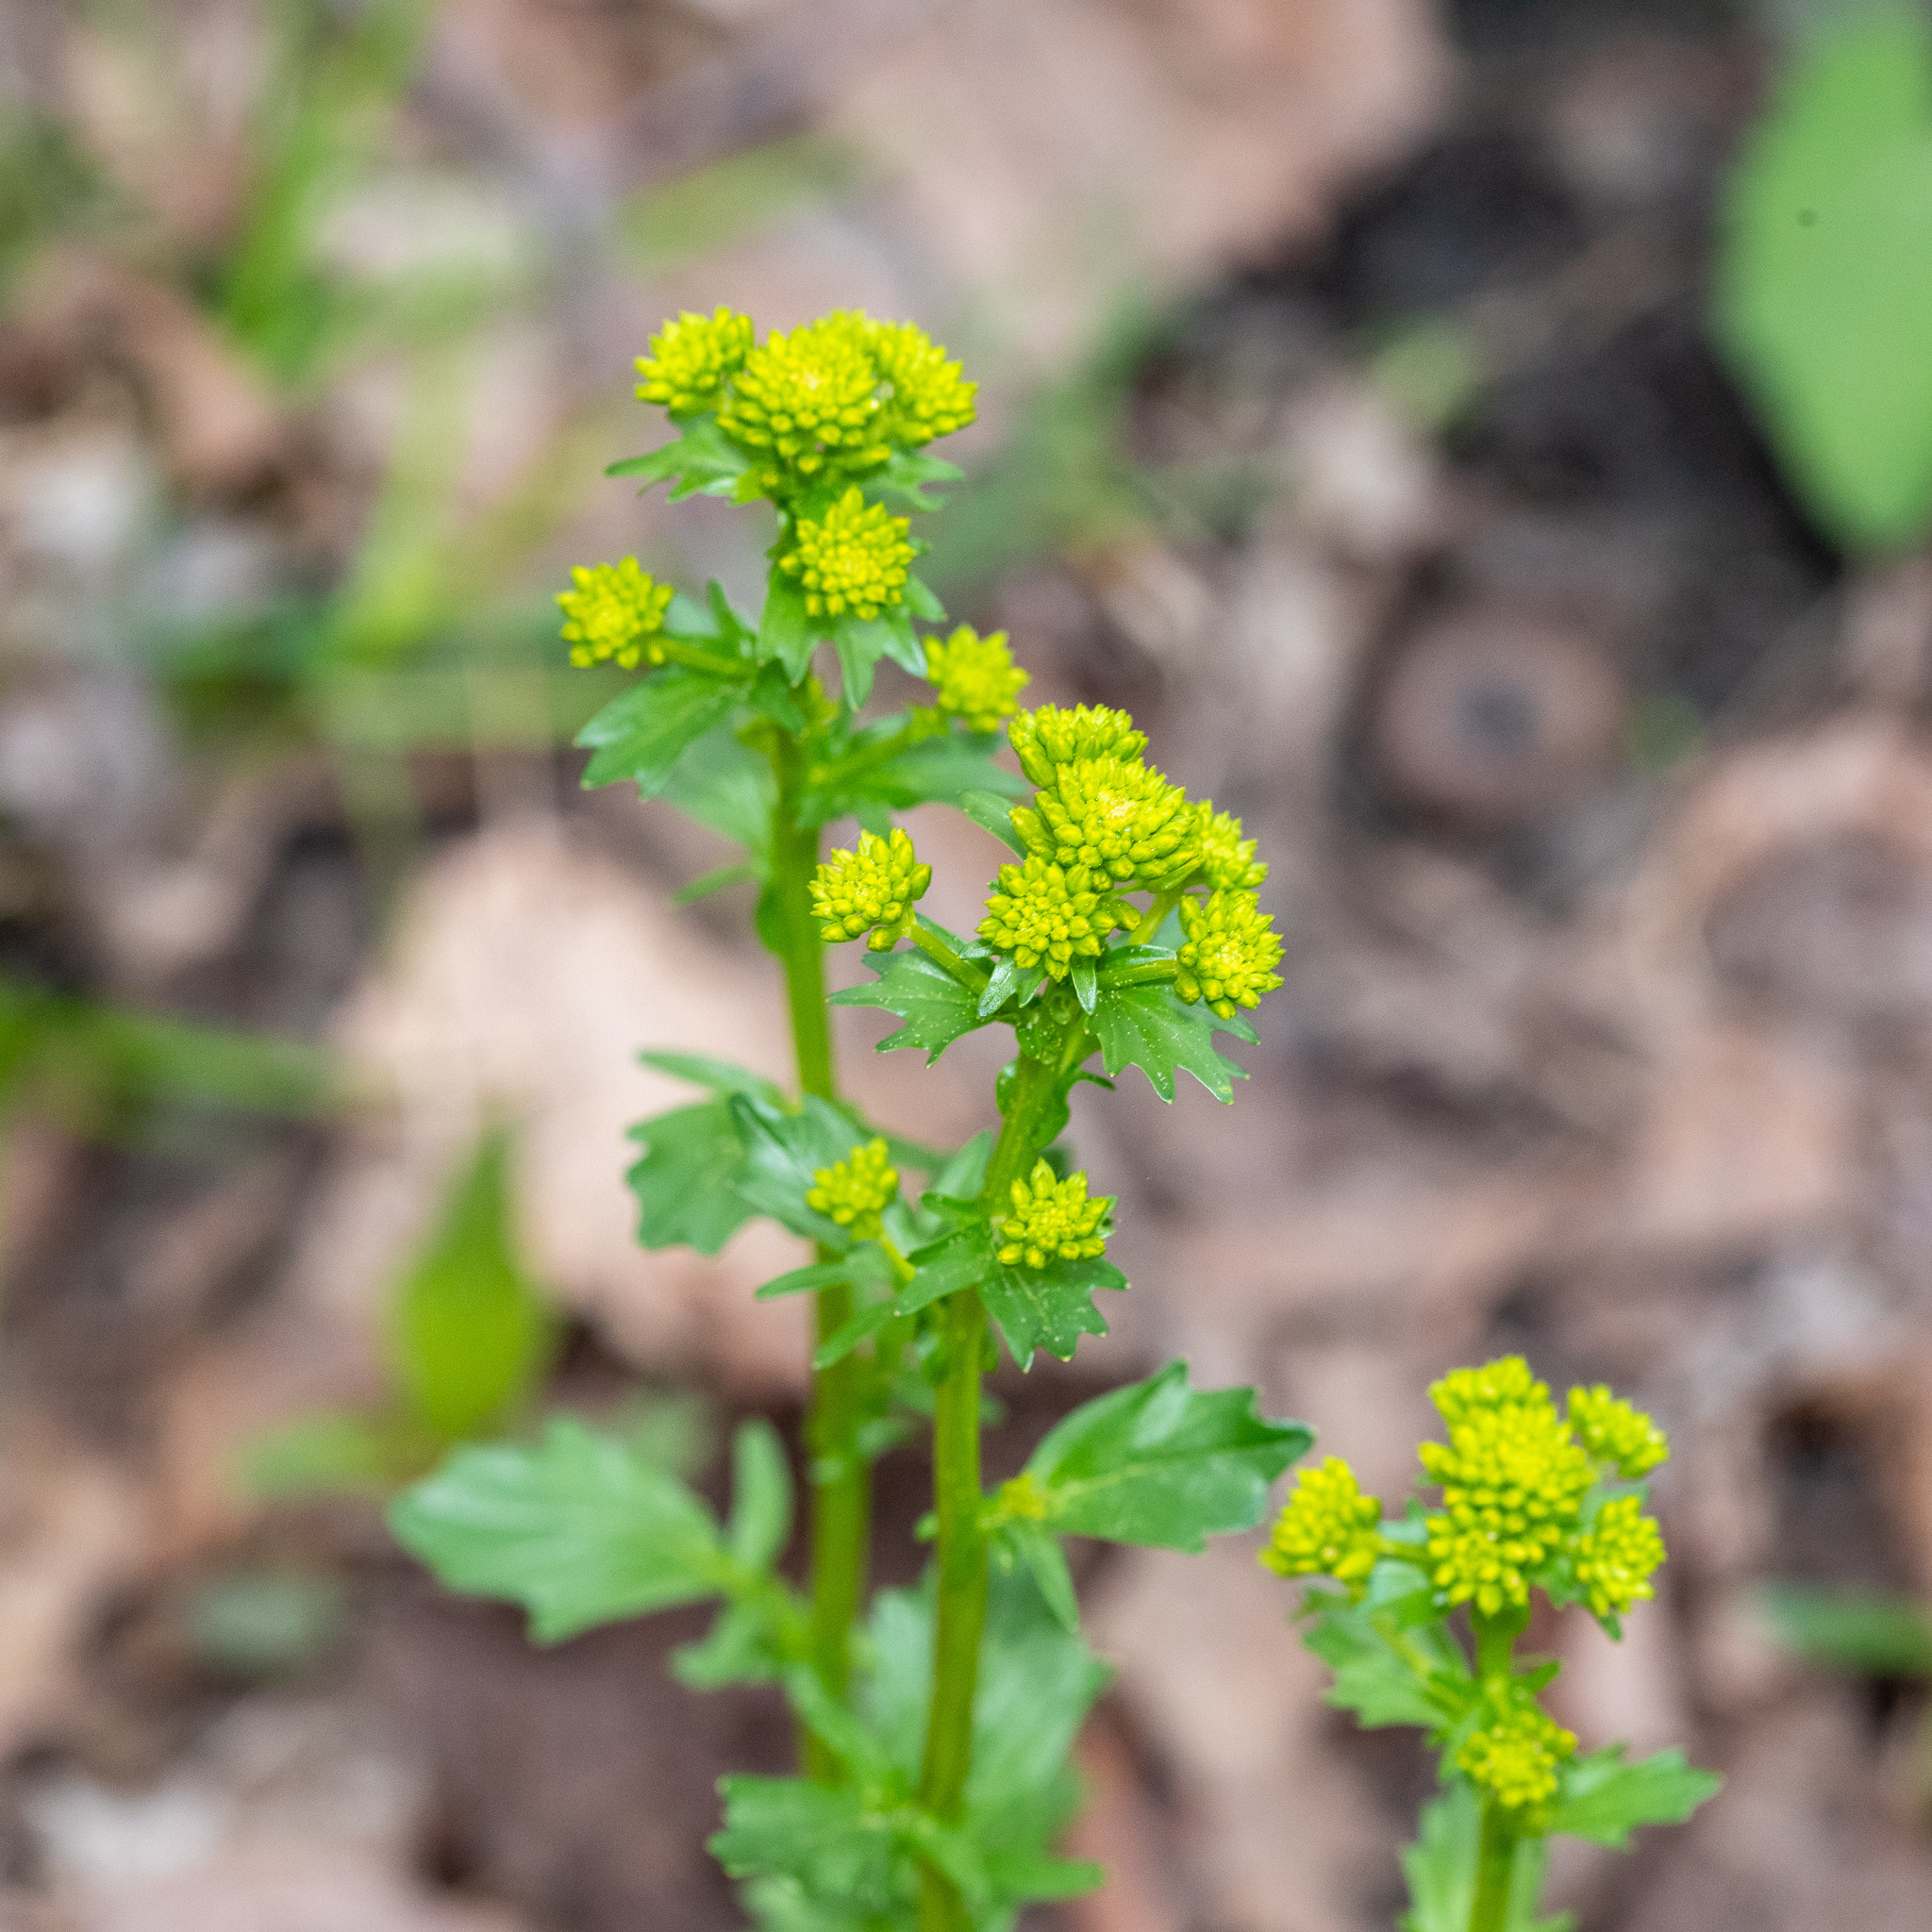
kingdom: Plantae
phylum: Tracheophyta
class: Magnoliopsida
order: Brassicales
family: Brassicaceae
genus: Barbarea
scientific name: Barbarea vulgaris
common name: Cressy-greens
